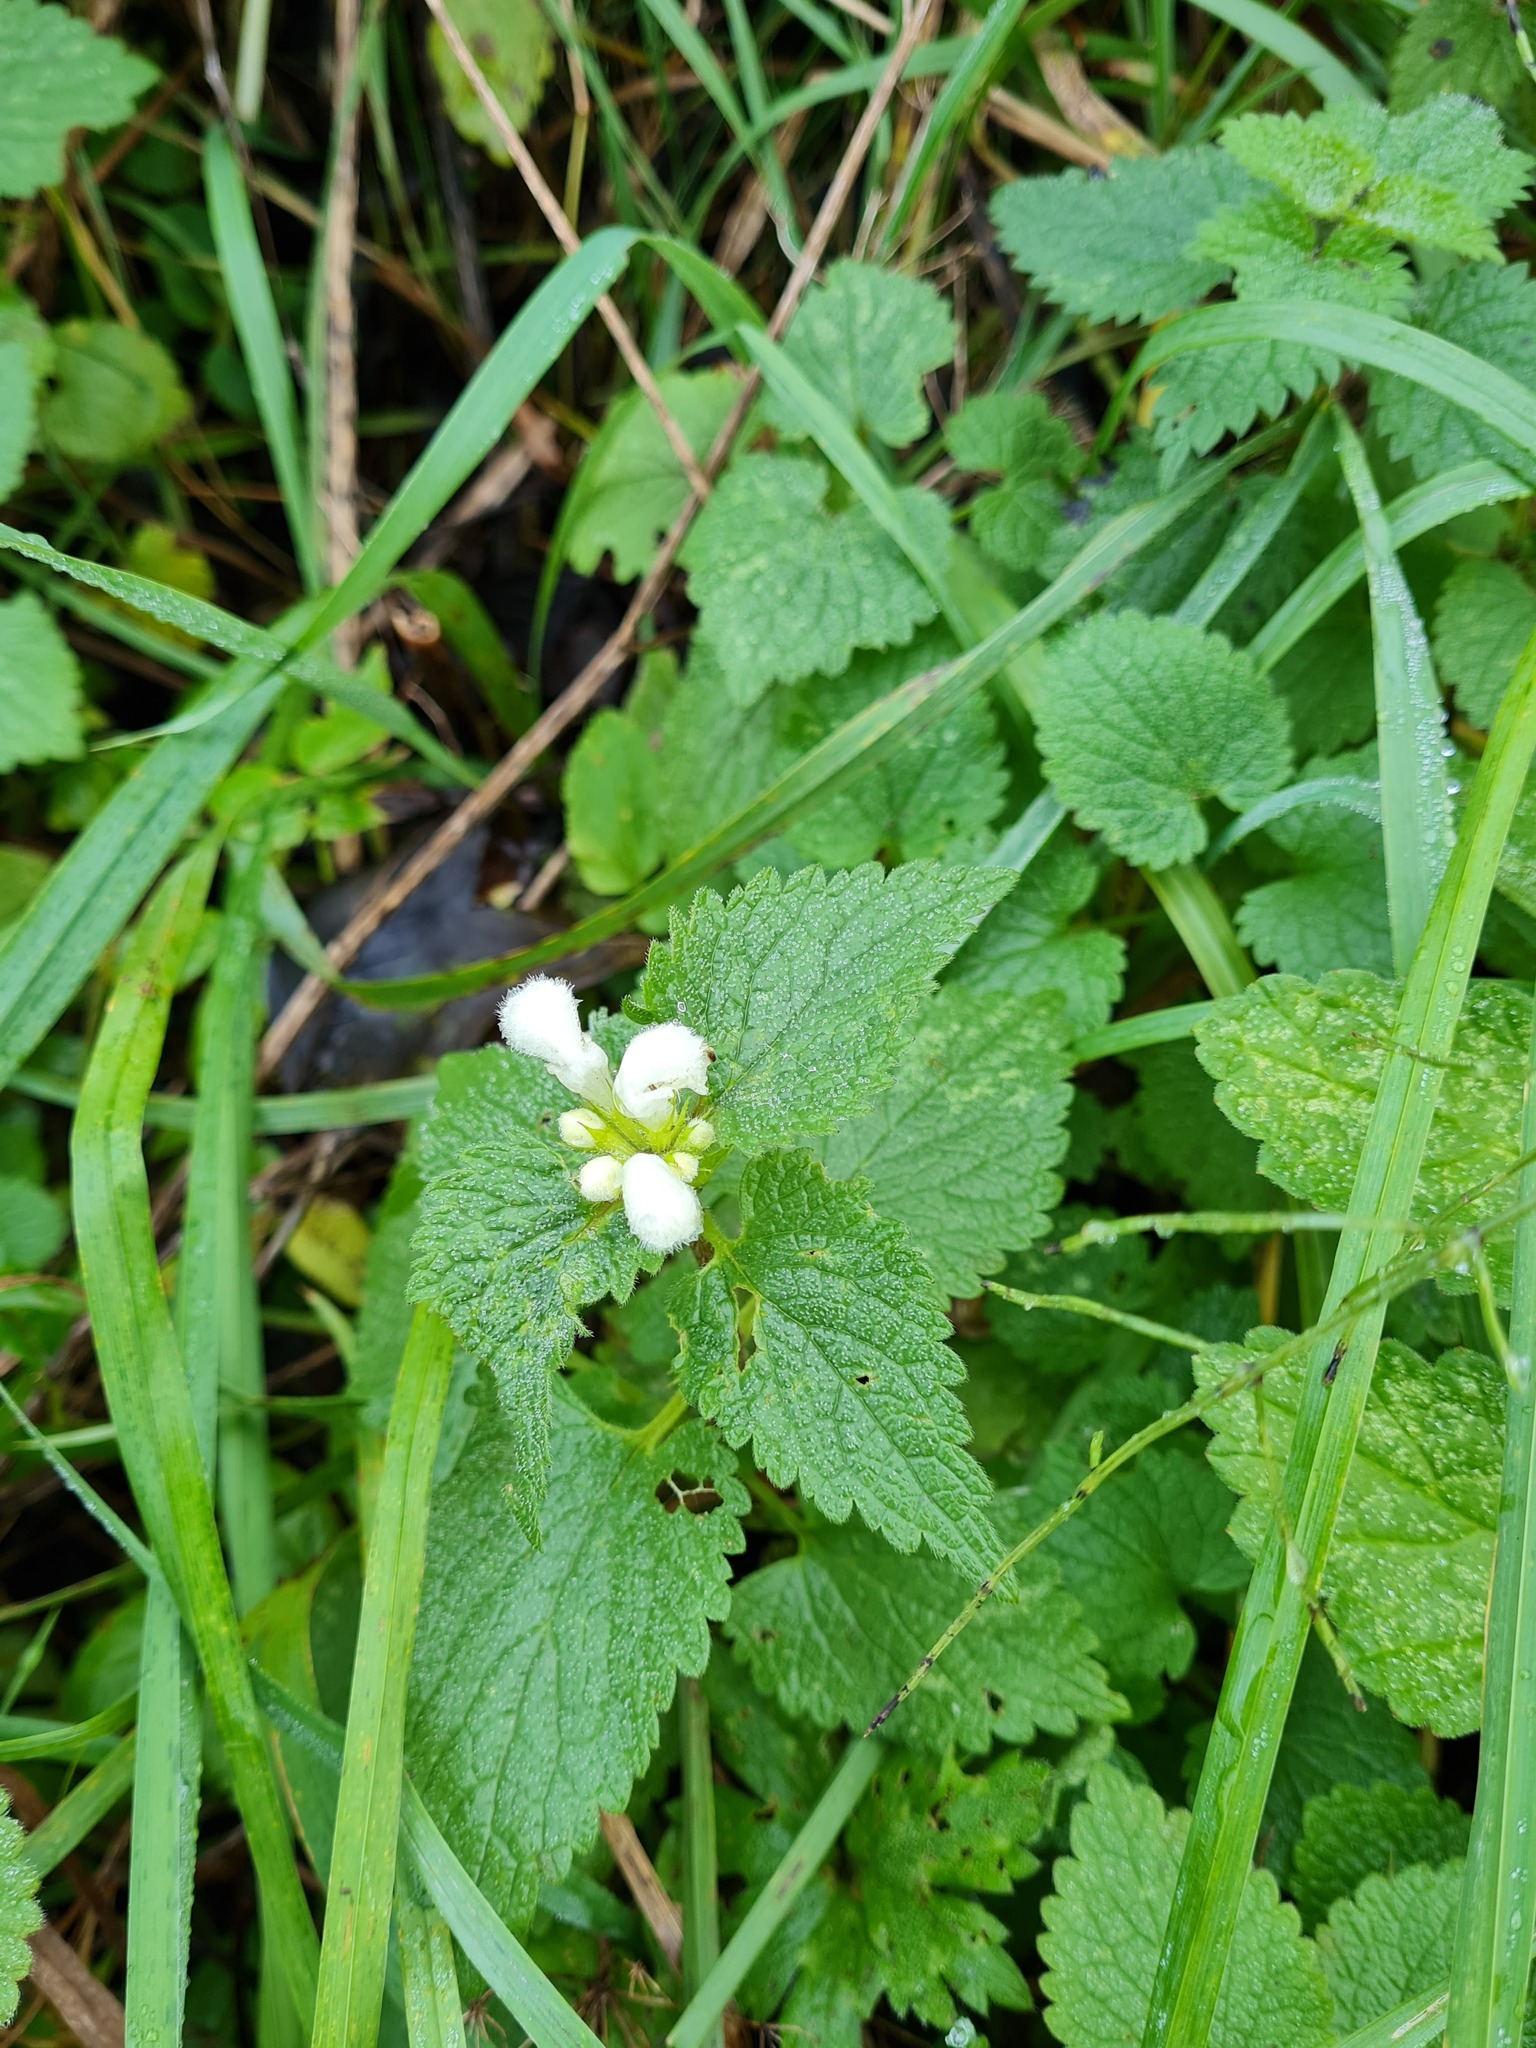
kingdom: Plantae
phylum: Tracheophyta
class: Magnoliopsida
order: Lamiales
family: Lamiaceae
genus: Lamium
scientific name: Lamium album
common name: White dead-nettle
